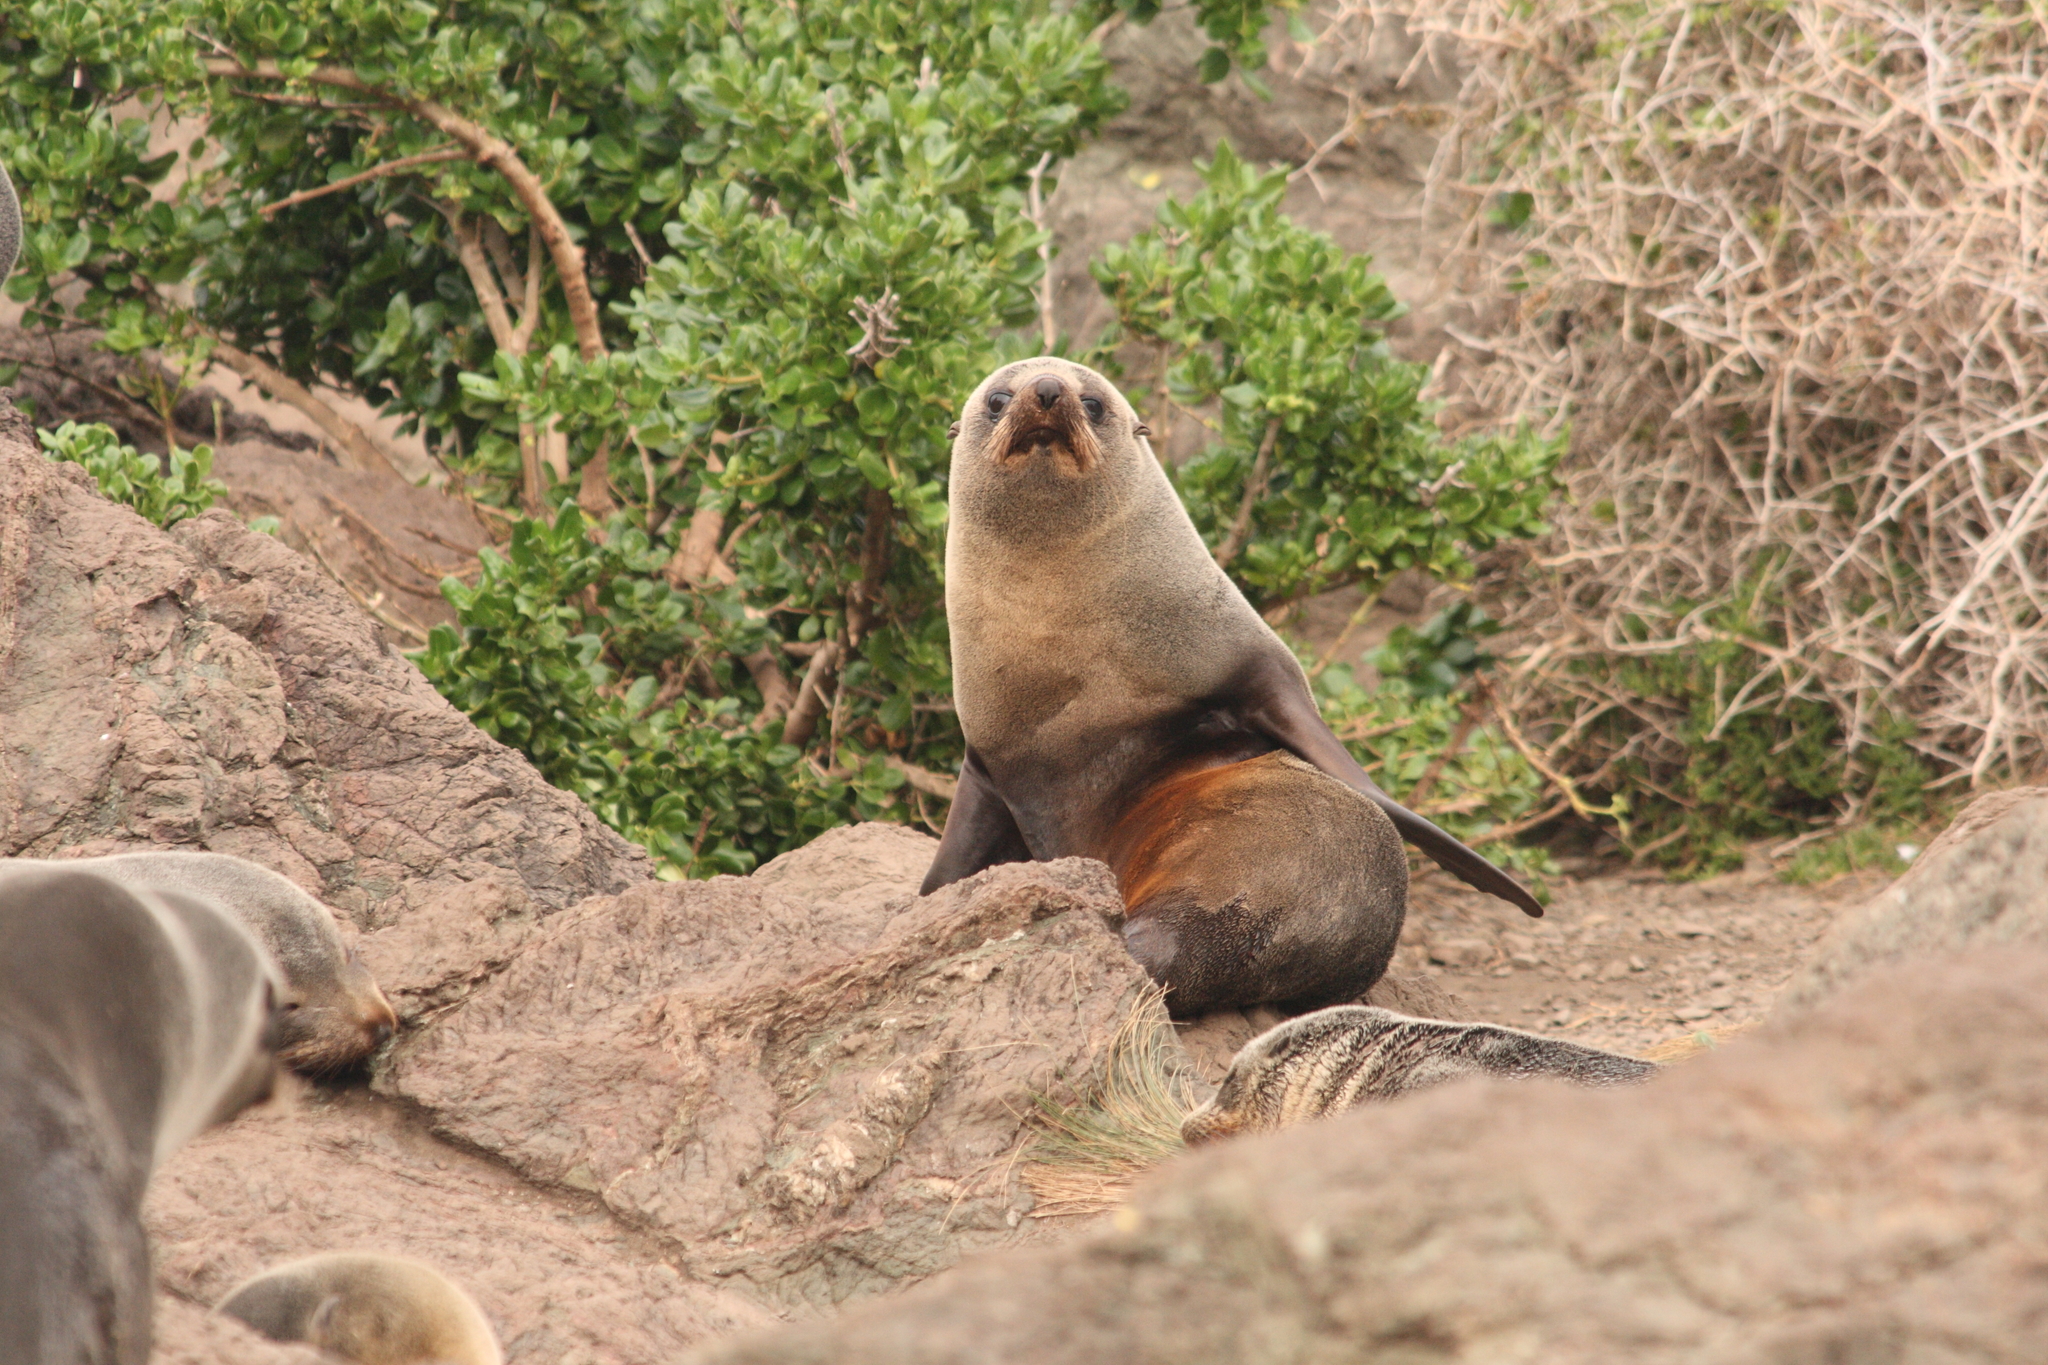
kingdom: Animalia
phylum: Chordata
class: Mammalia
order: Carnivora
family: Otariidae
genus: Arctocephalus
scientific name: Arctocephalus forsteri
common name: New zealand fur seal
